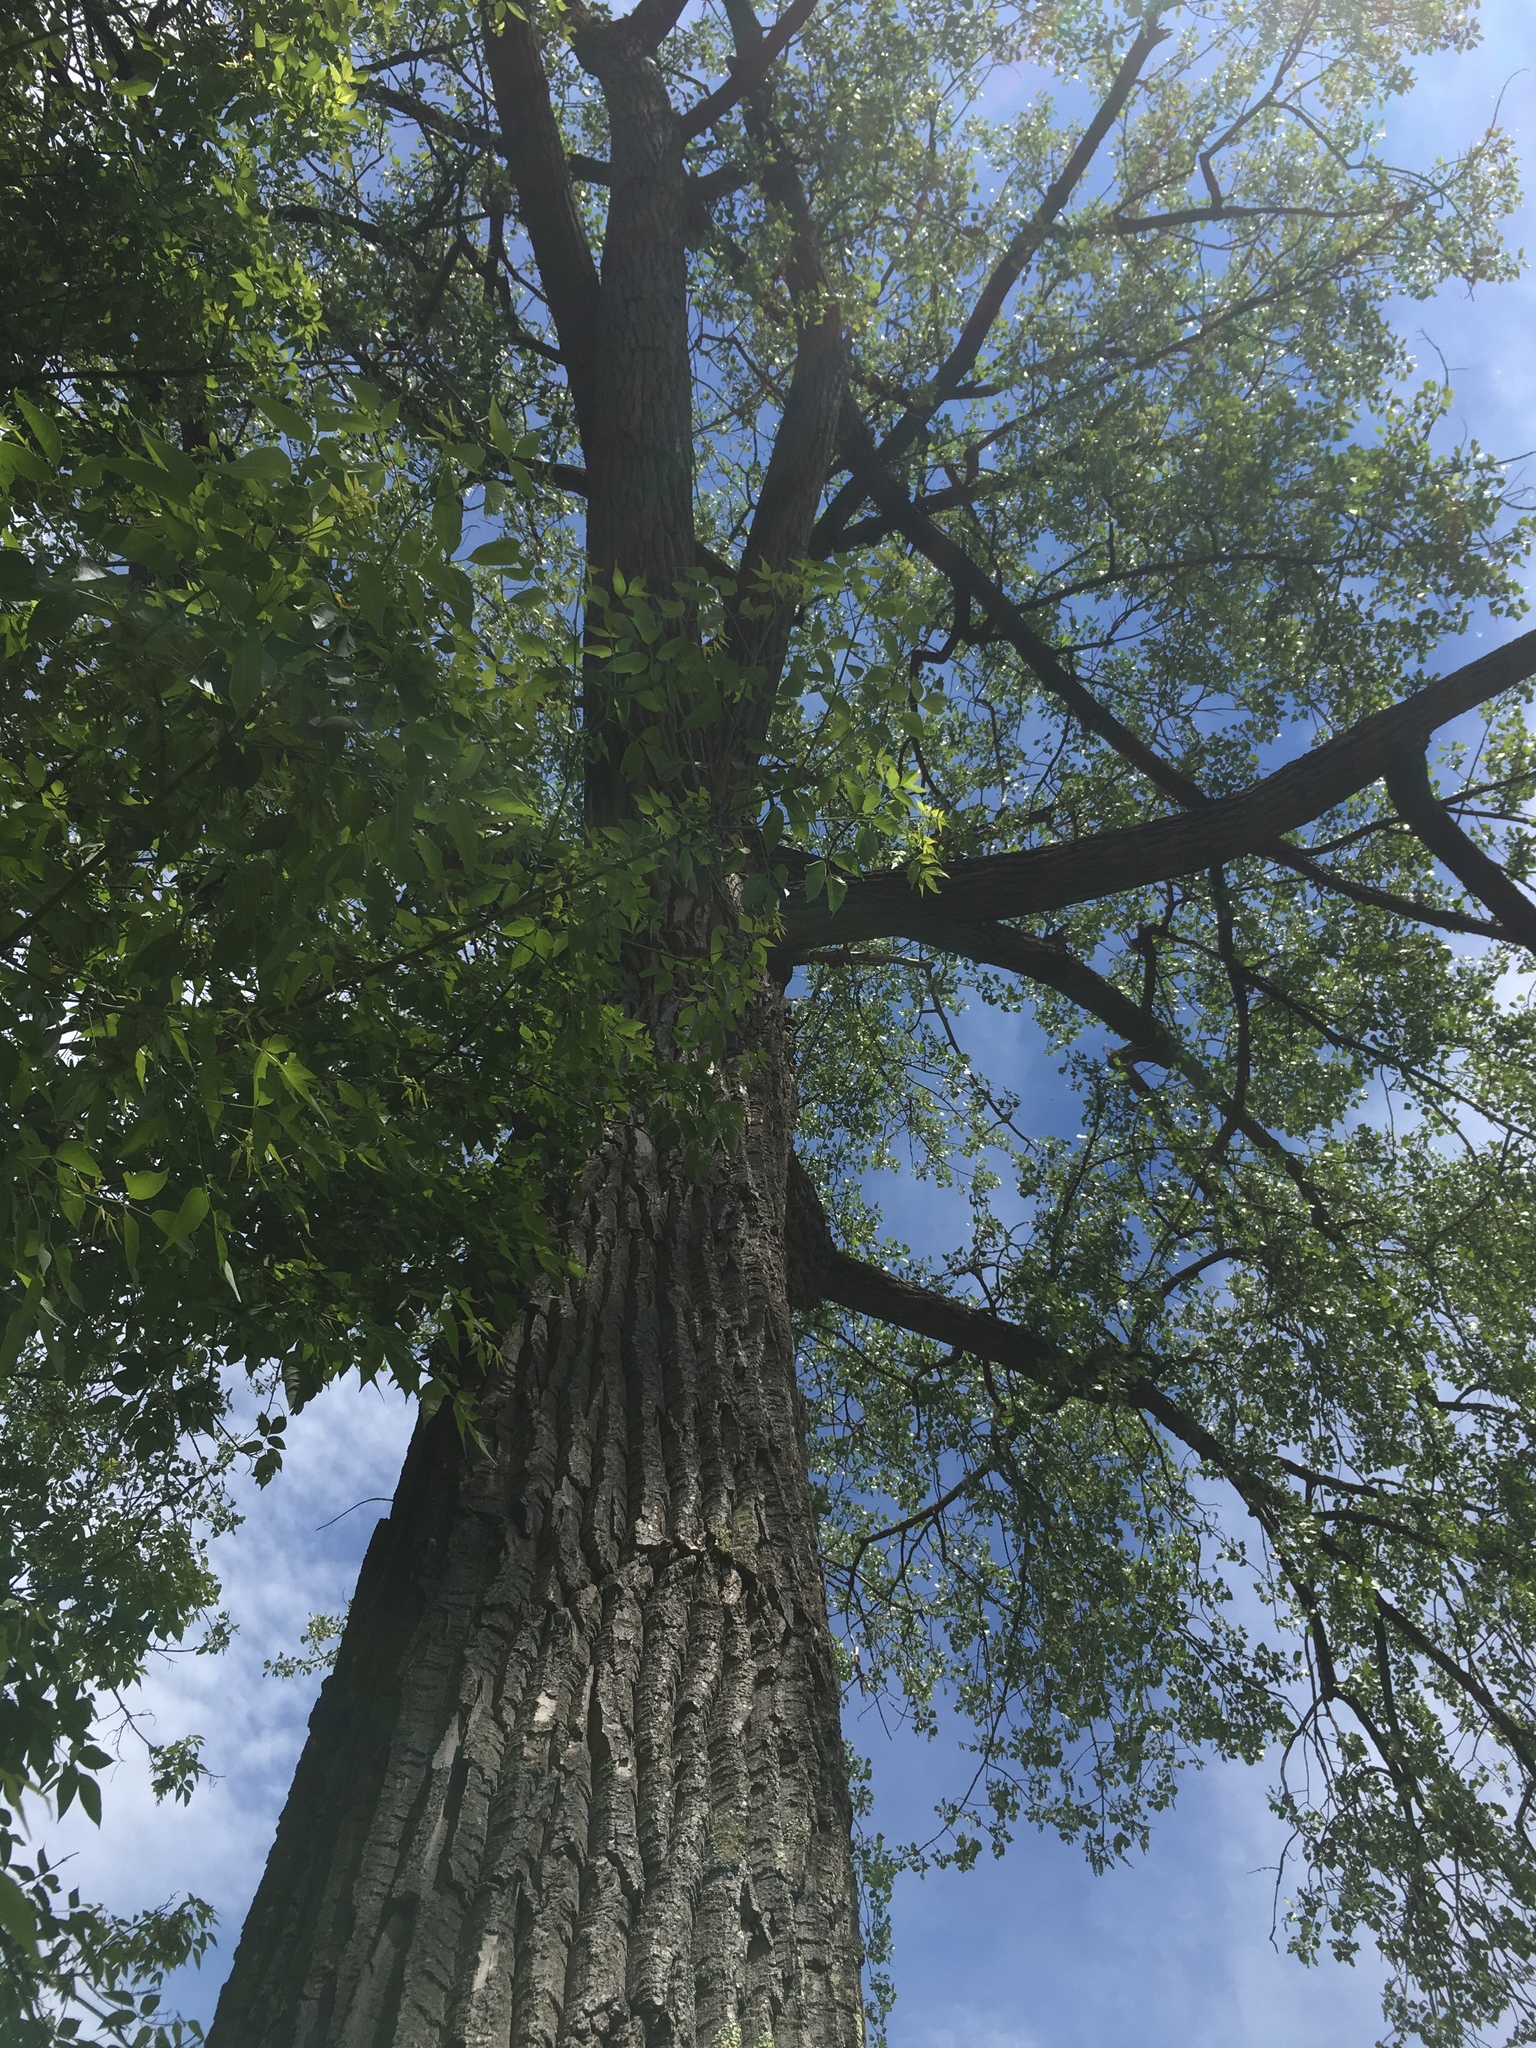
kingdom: Plantae
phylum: Tracheophyta
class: Magnoliopsida
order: Malpighiales
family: Salicaceae
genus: Populus
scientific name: Populus grandidentata
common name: Bigtooth aspen
